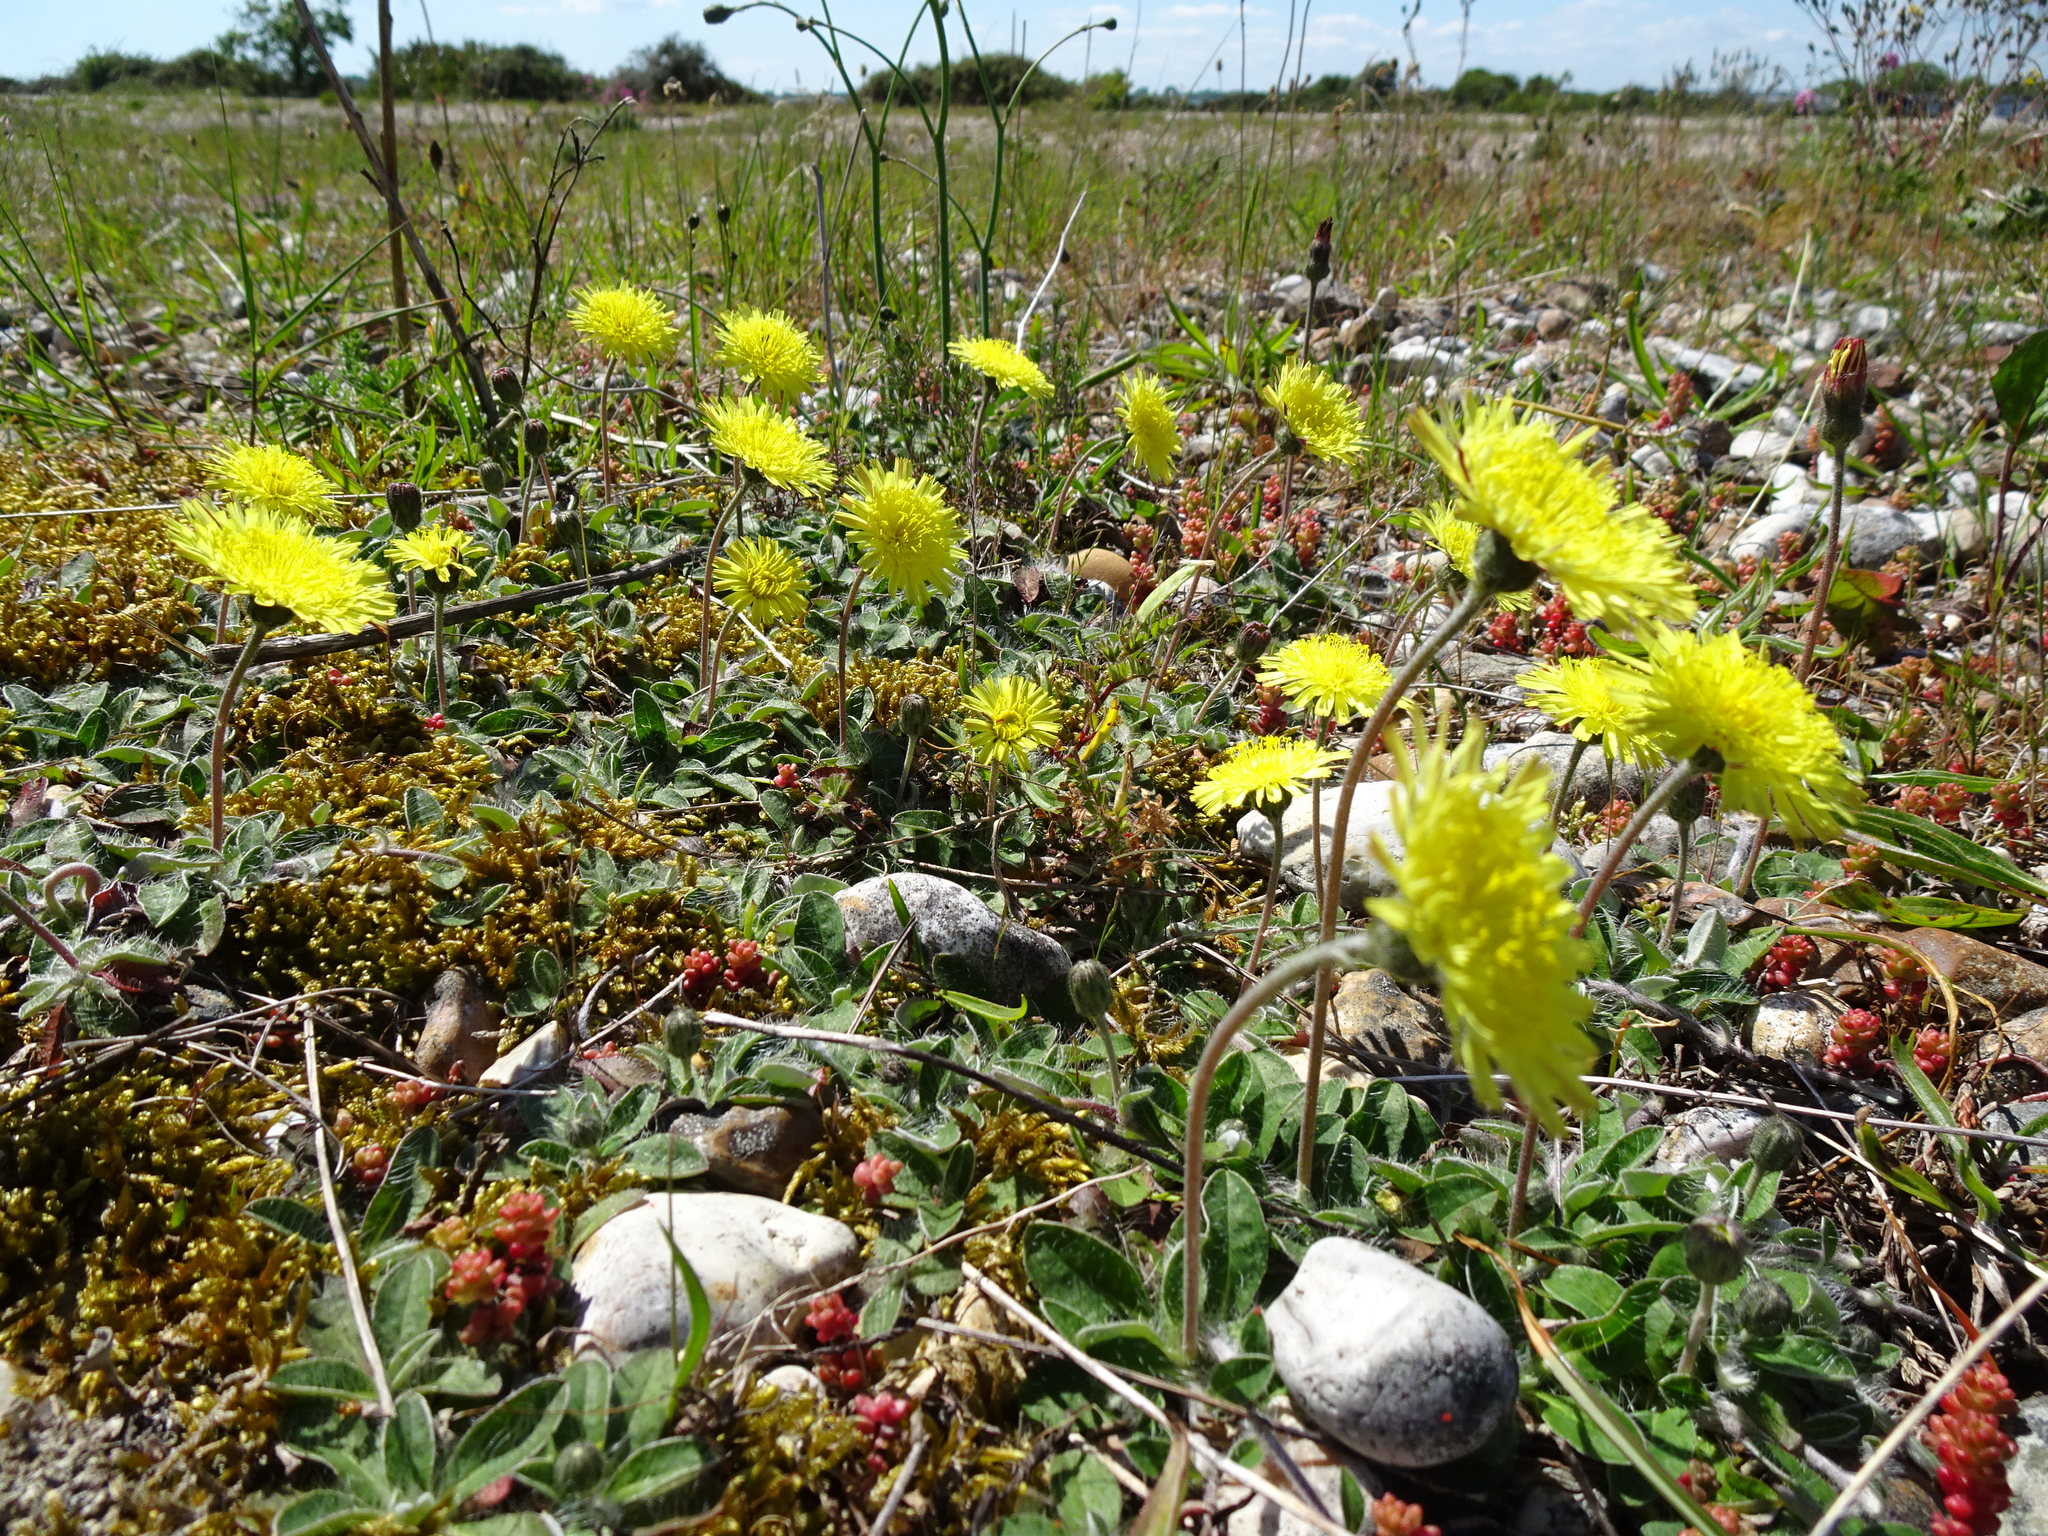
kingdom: Plantae
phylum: Tracheophyta
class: Magnoliopsida
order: Asterales
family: Asteraceae
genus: Pilosella
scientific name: Pilosella officinarum
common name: Mouse-ear hawkweed
